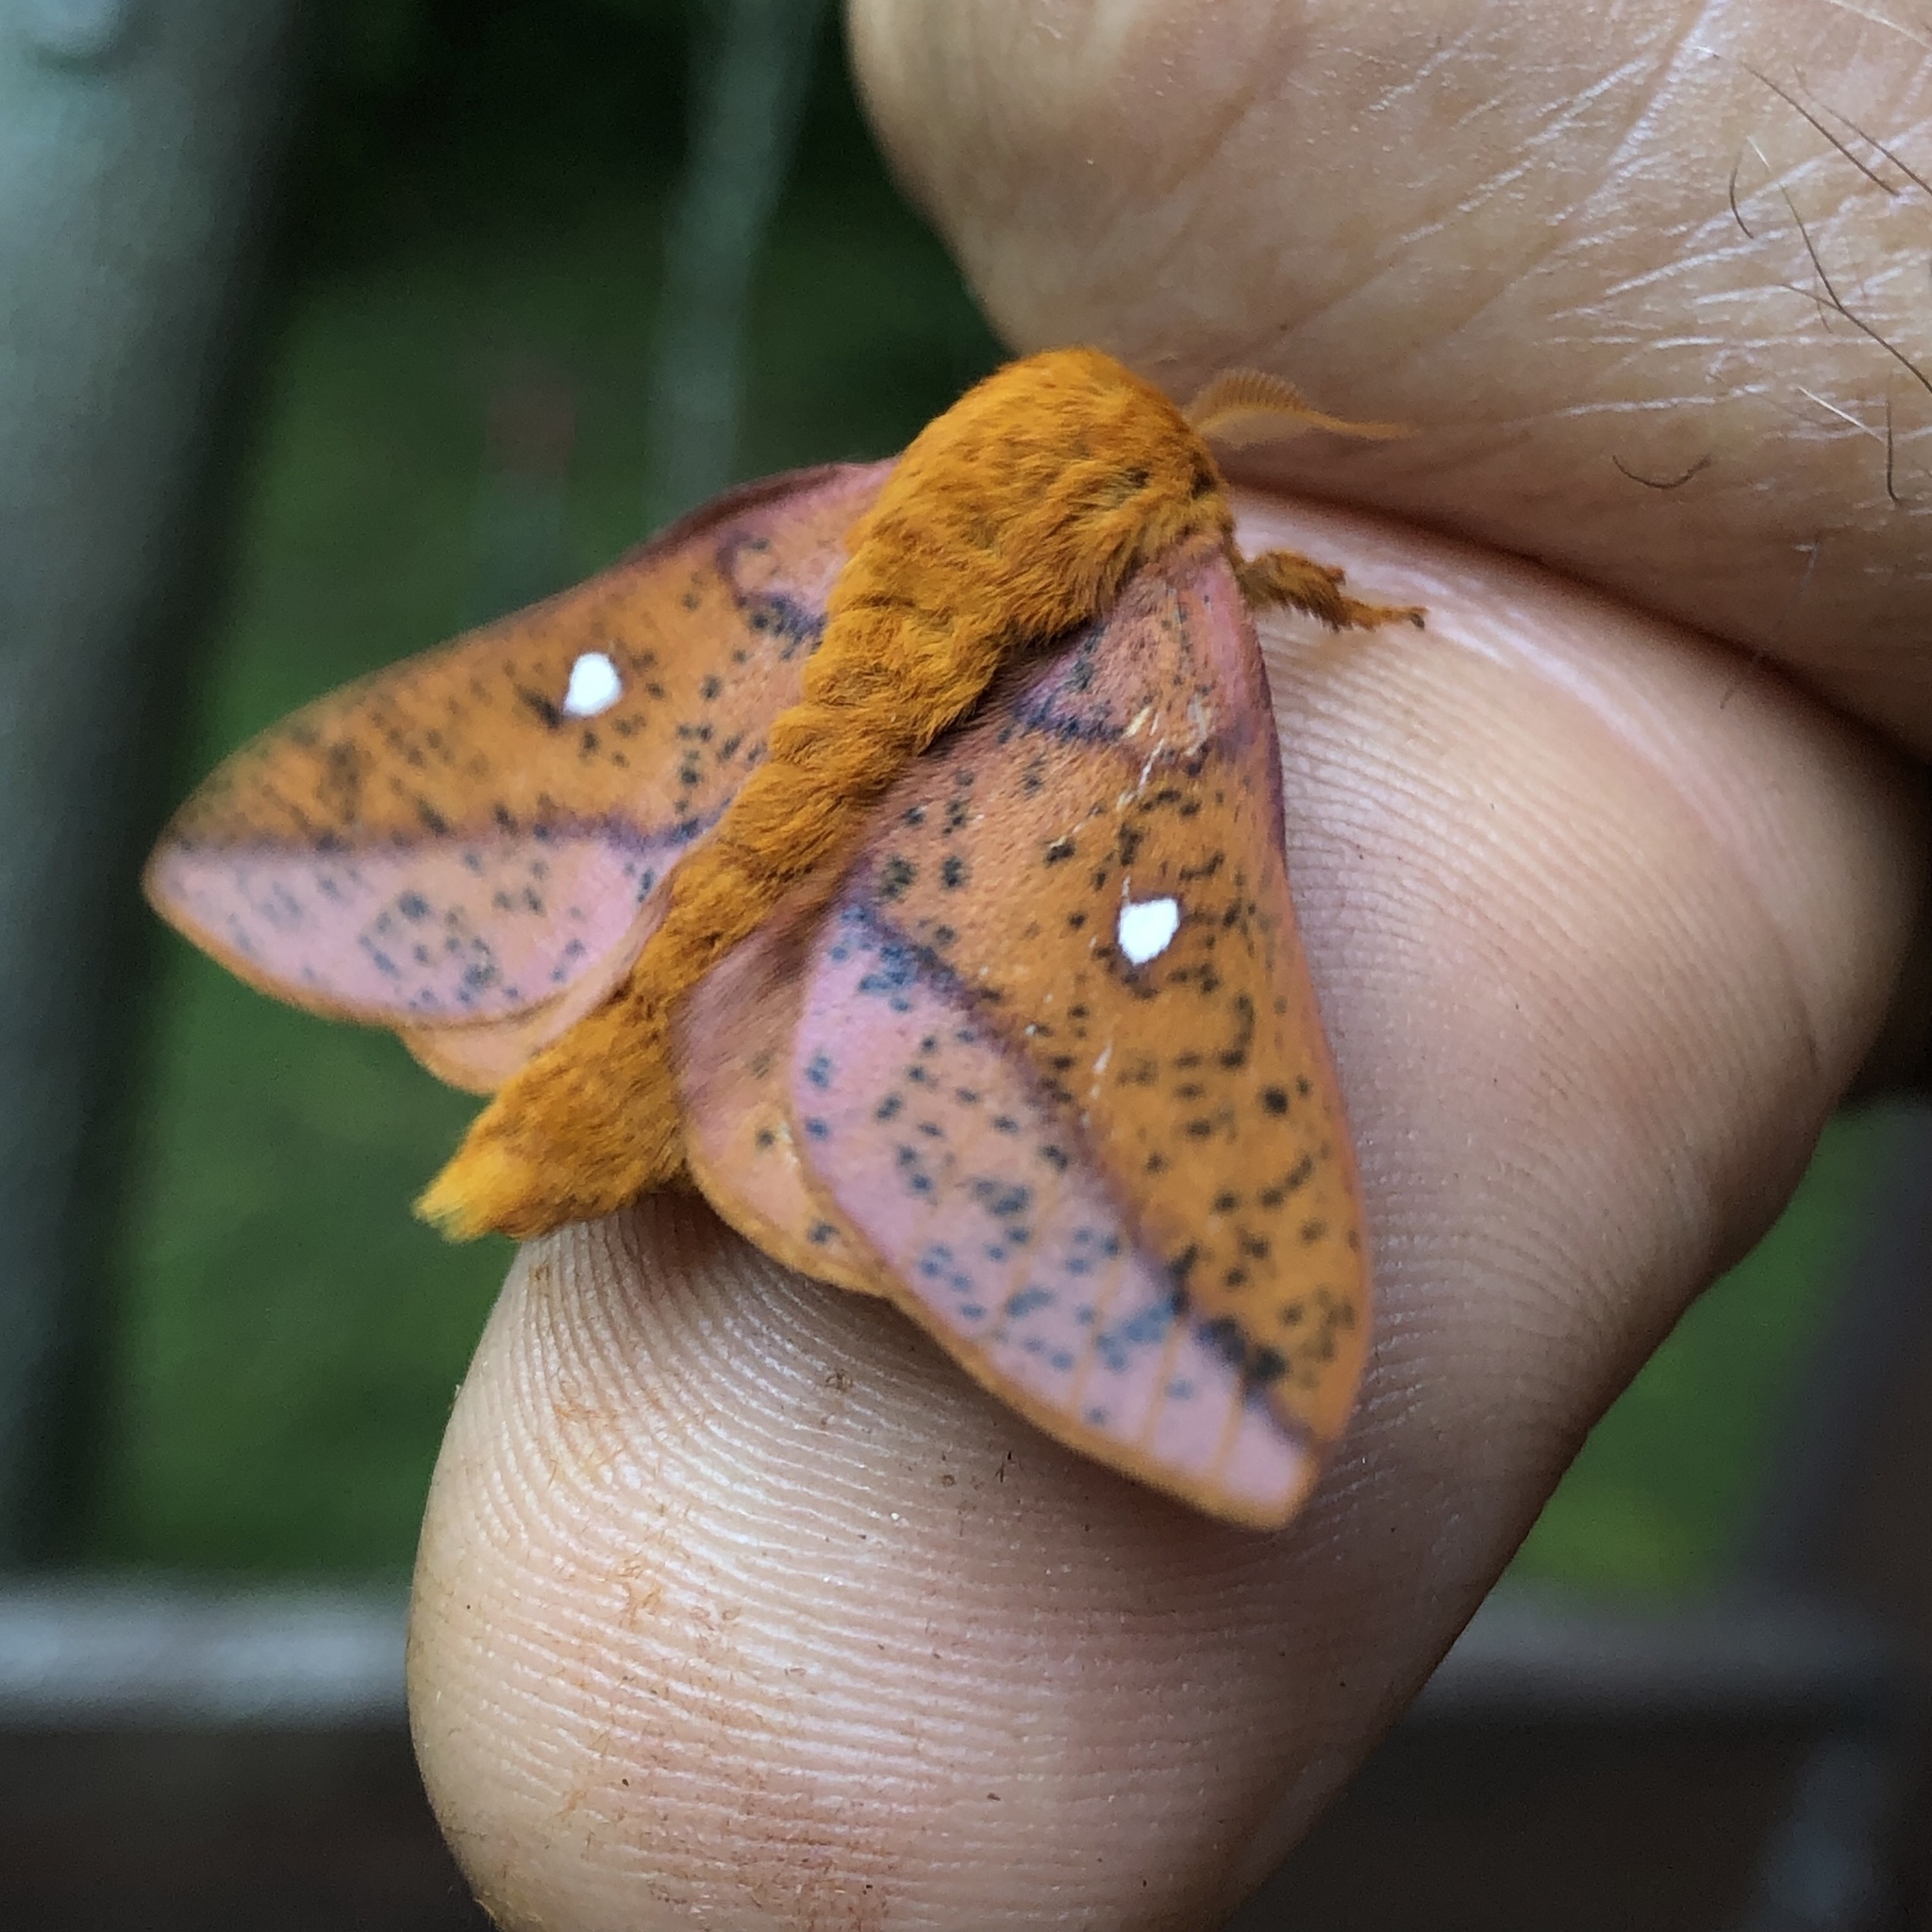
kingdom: Animalia
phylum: Arthropoda
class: Insecta
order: Lepidoptera
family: Saturniidae
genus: Anisota
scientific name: Anisota stigma
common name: Spiny oakworm moth
